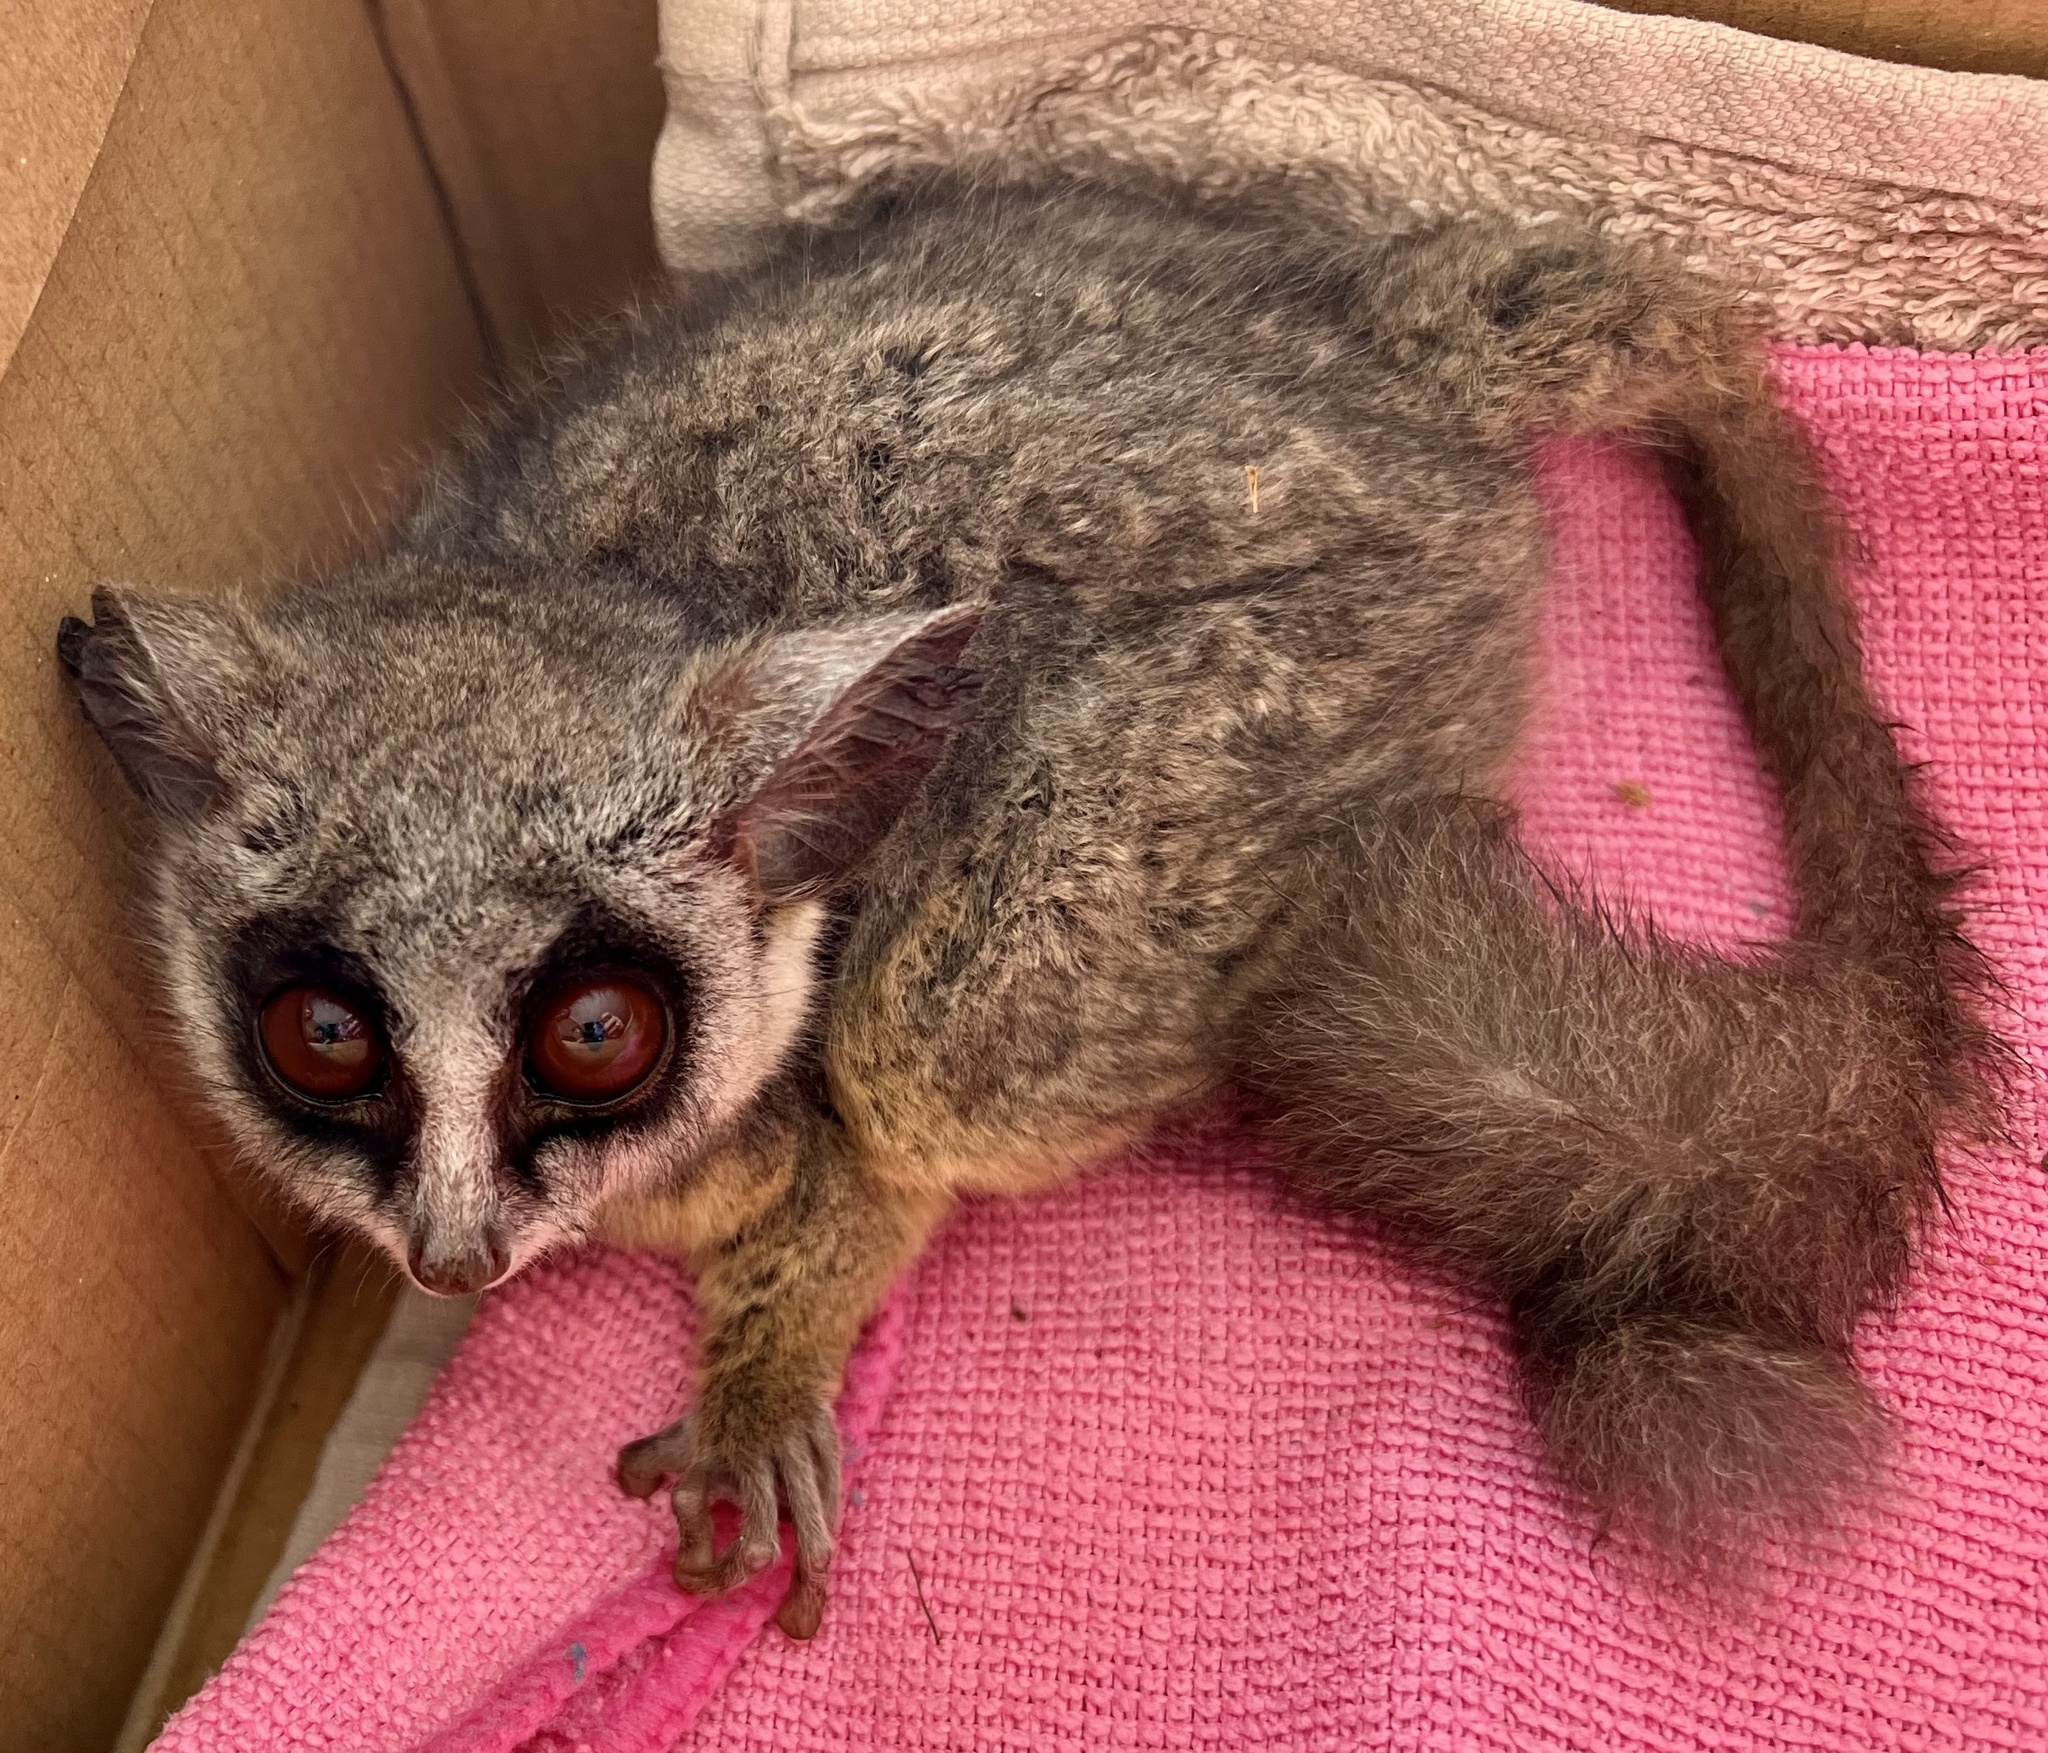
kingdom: Animalia
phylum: Chordata
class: Mammalia
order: Primates
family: Galagidae
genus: Galago
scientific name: Galago moholi
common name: Moholi bushbaby
